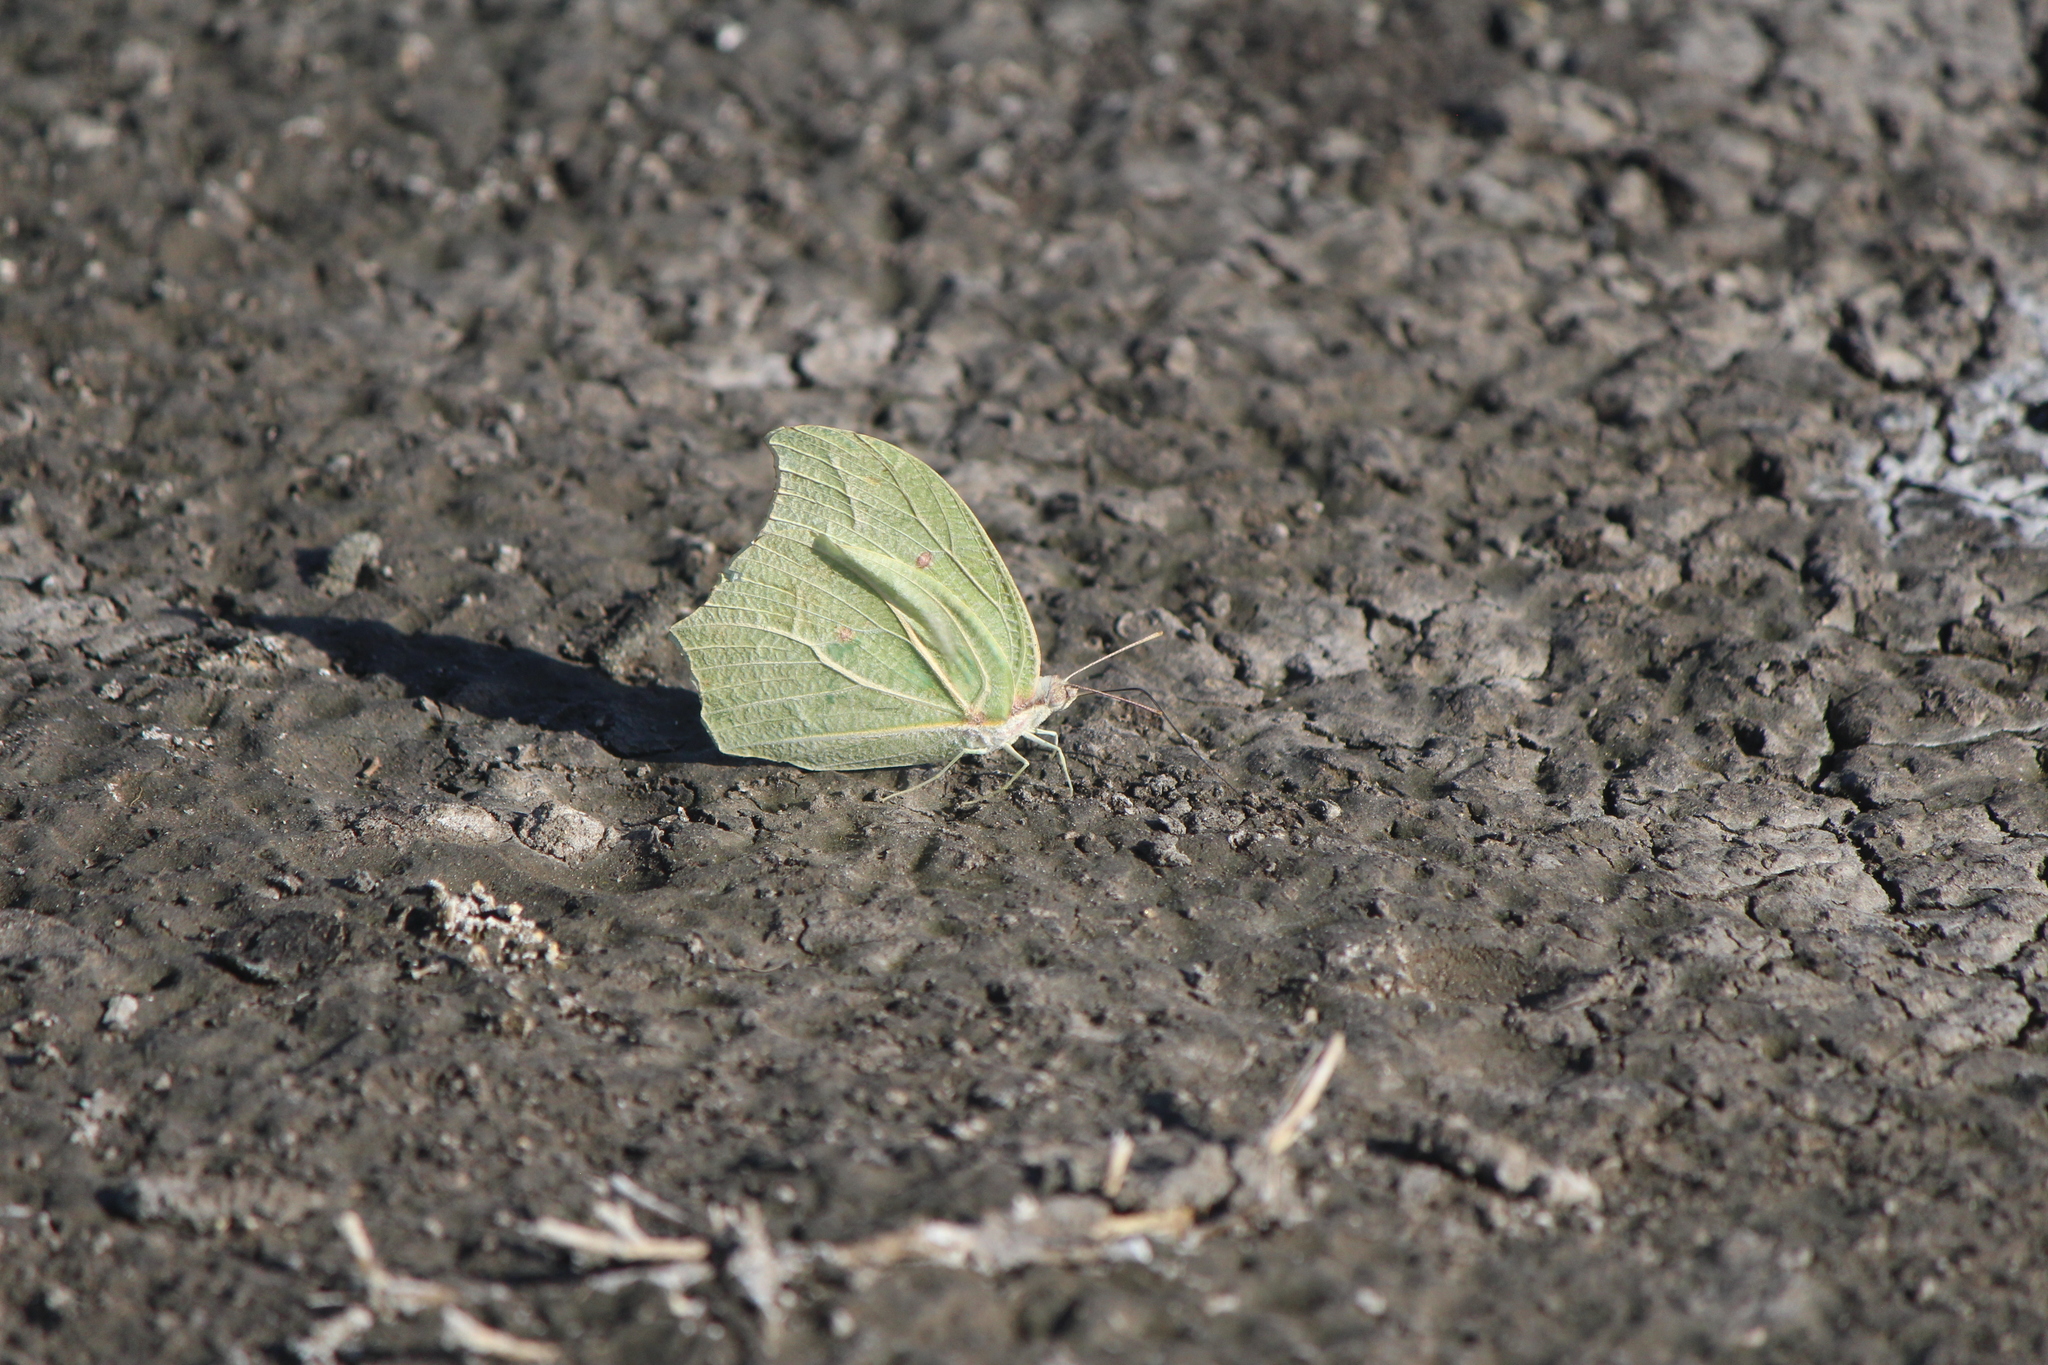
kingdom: Animalia
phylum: Arthropoda
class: Insecta
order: Lepidoptera
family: Pieridae
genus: Anteos
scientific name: Anteos clorinde
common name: White angled sulphur
